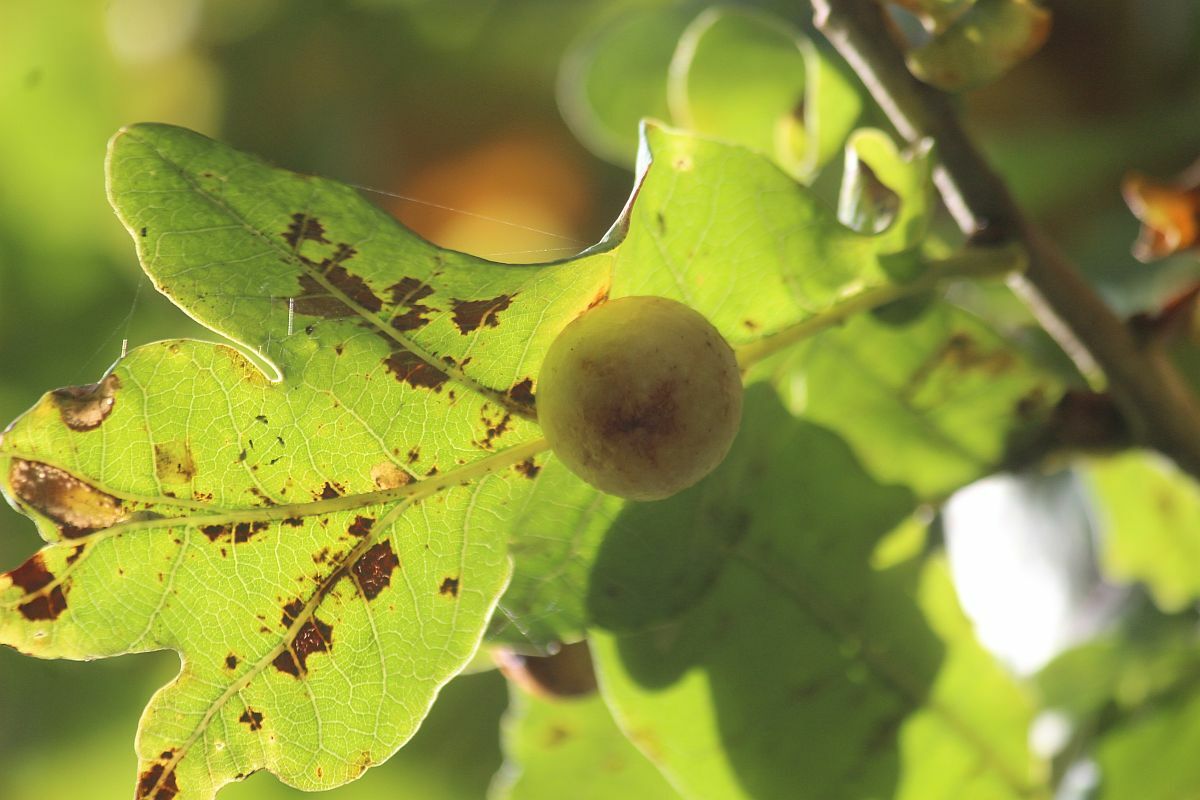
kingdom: Animalia
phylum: Arthropoda
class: Insecta
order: Hymenoptera
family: Cynipidae
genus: Cynips
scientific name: Cynips quercusfolii
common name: Cherry gall
